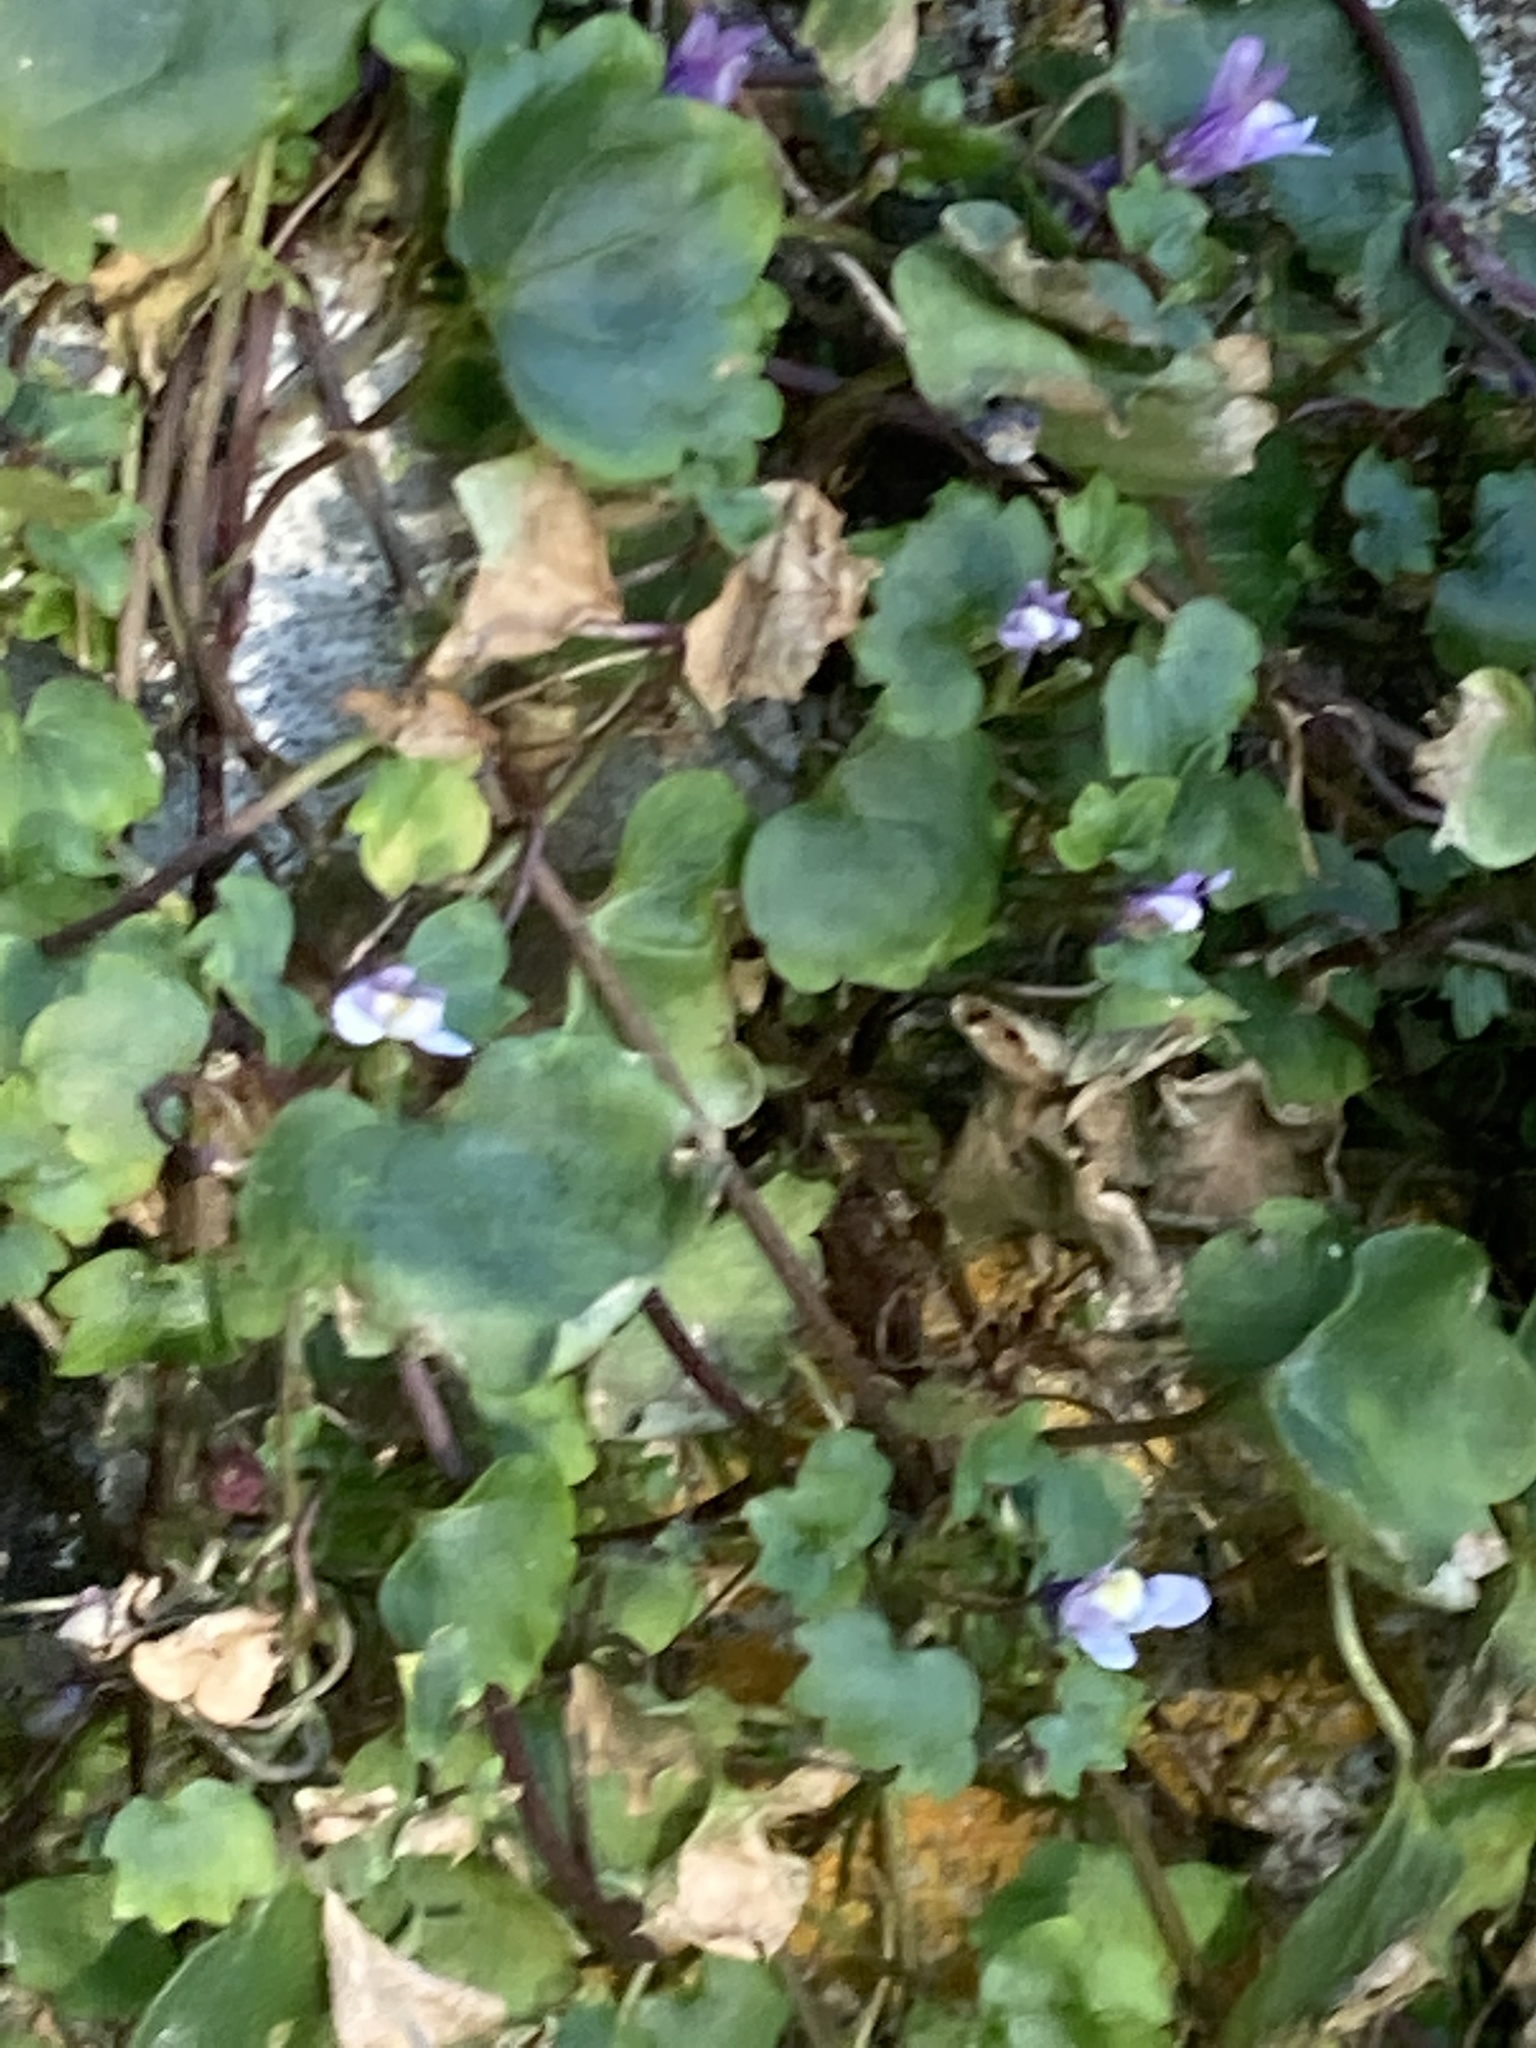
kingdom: Plantae
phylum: Tracheophyta
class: Magnoliopsida
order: Lamiales
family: Plantaginaceae
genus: Cymbalaria
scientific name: Cymbalaria muralis
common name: Ivy-leaved toadflax
